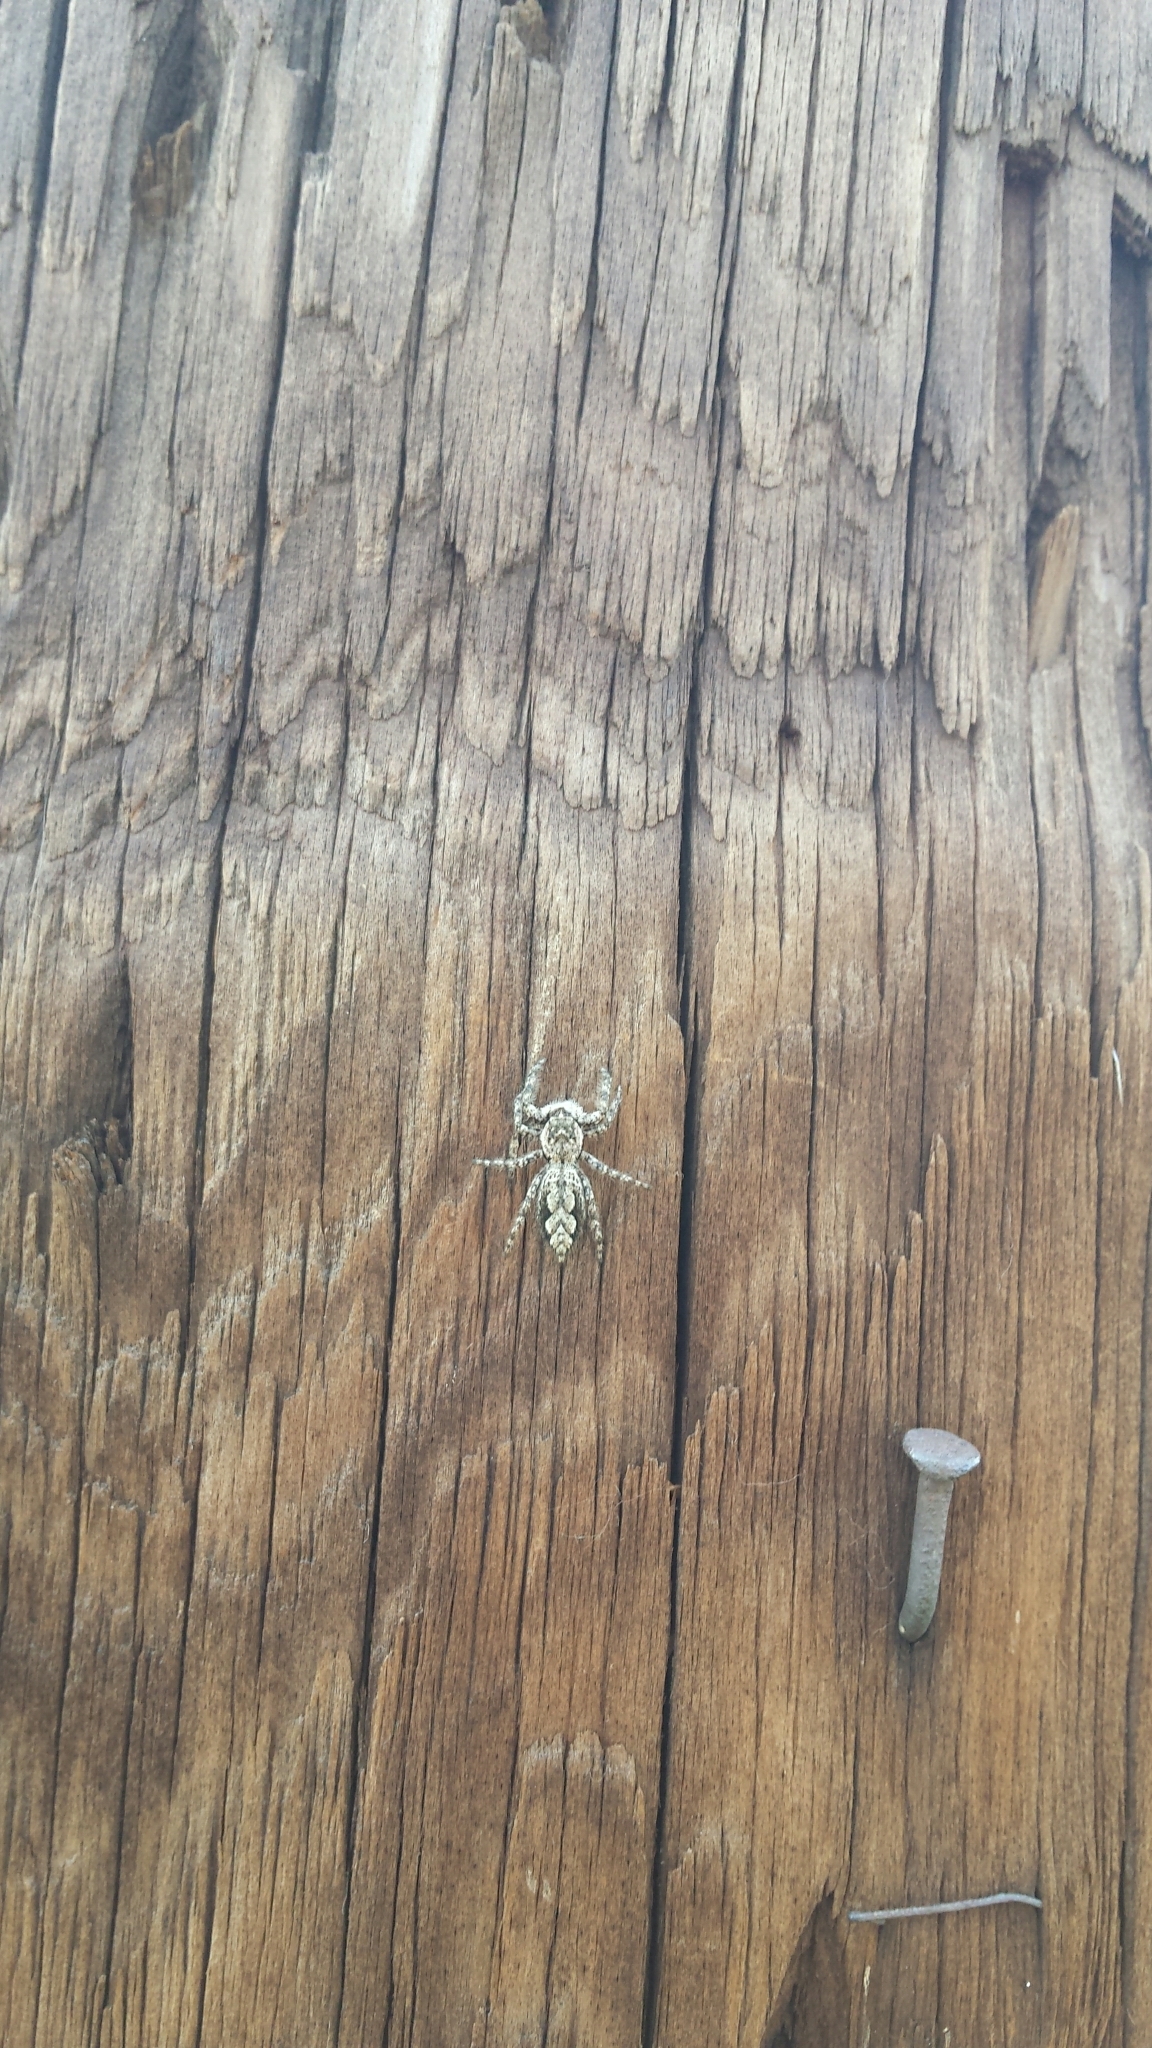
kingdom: Animalia
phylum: Arthropoda
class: Arachnida
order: Araneae
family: Salticidae
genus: Platycryptus
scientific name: Platycryptus undatus
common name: Tan jumping spider
